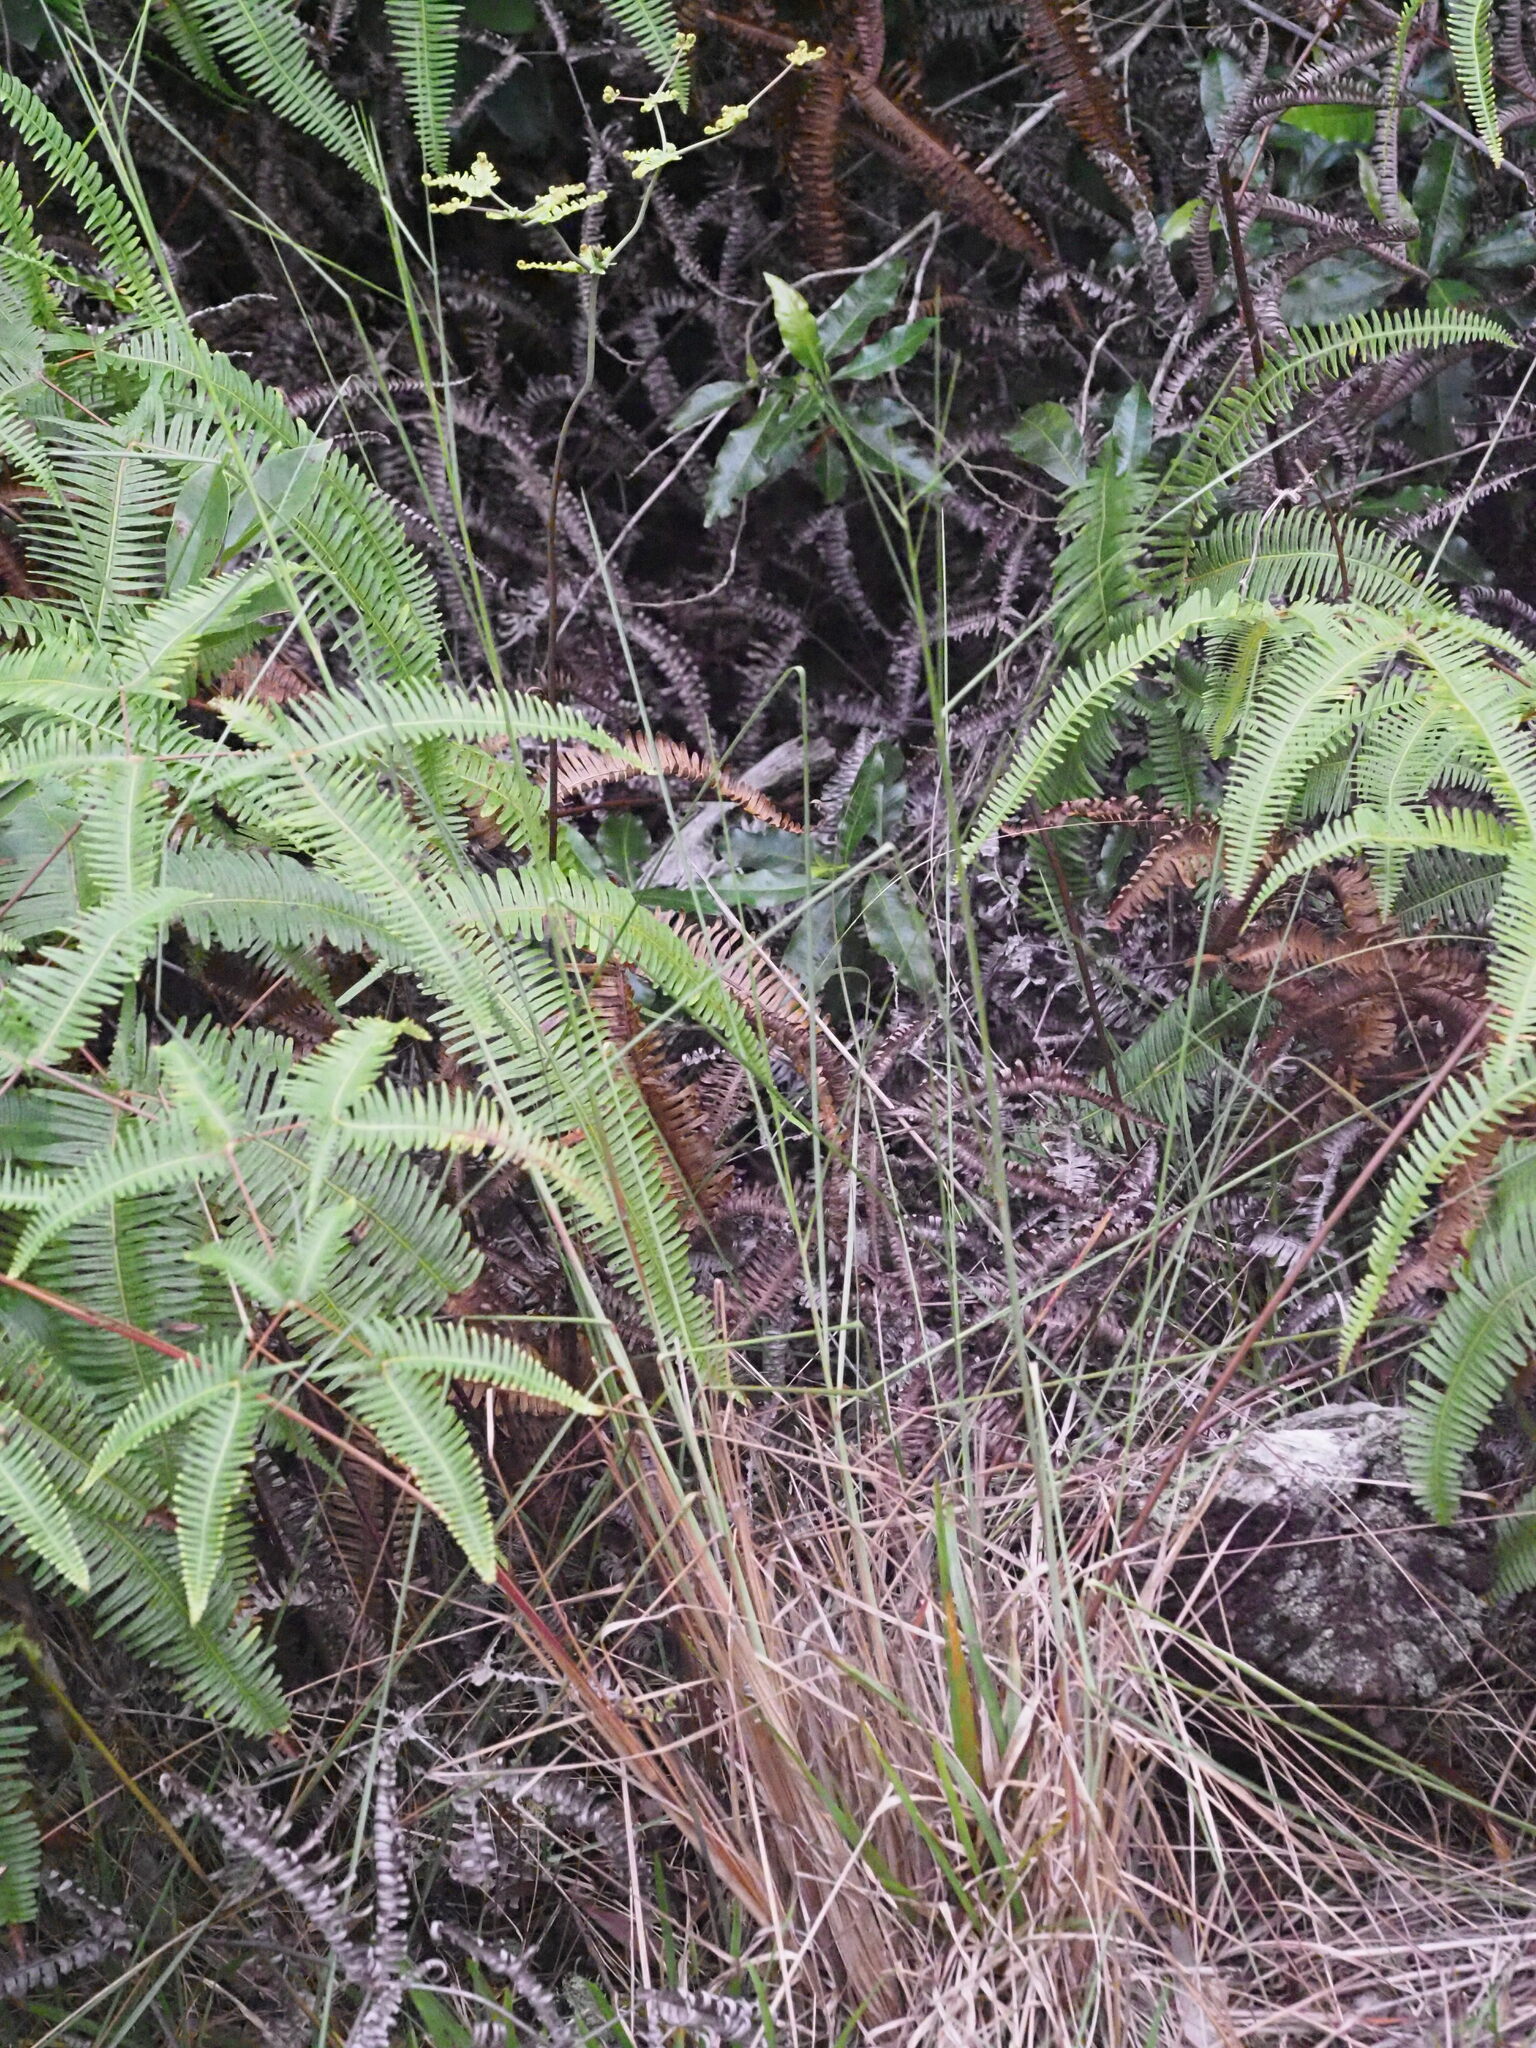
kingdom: Plantae
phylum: Tracheophyta
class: Liliopsida
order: Poales
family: Poaceae
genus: Andropogon
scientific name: Andropogon virginicus
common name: Broomsedge bluestem
